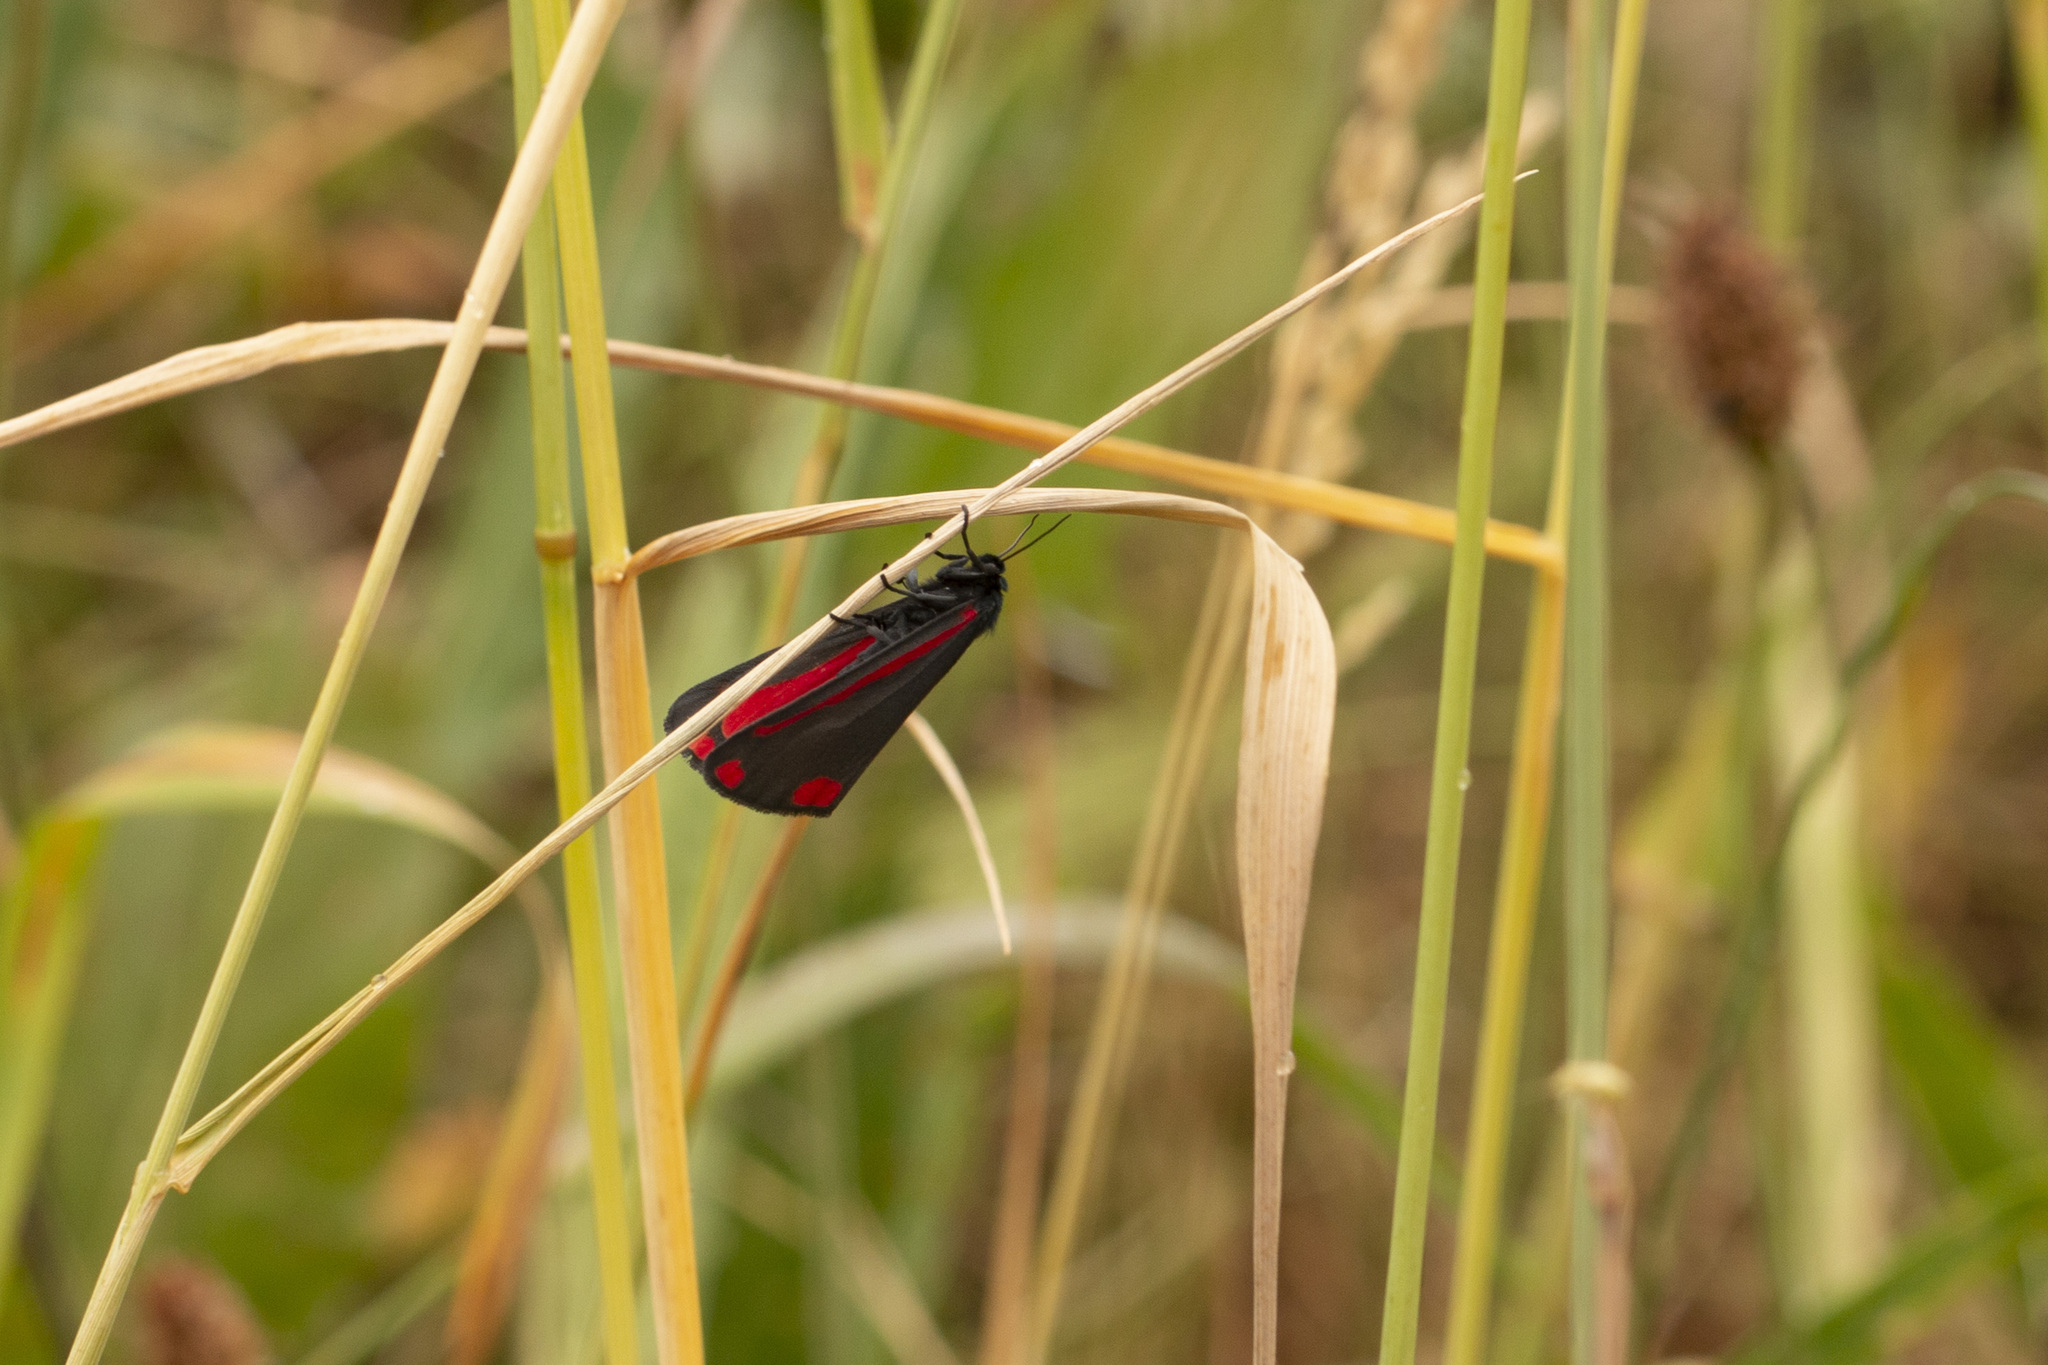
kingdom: Animalia
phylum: Arthropoda
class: Insecta
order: Lepidoptera
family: Erebidae
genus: Tyria
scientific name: Tyria jacobaeae
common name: Cinnabar
